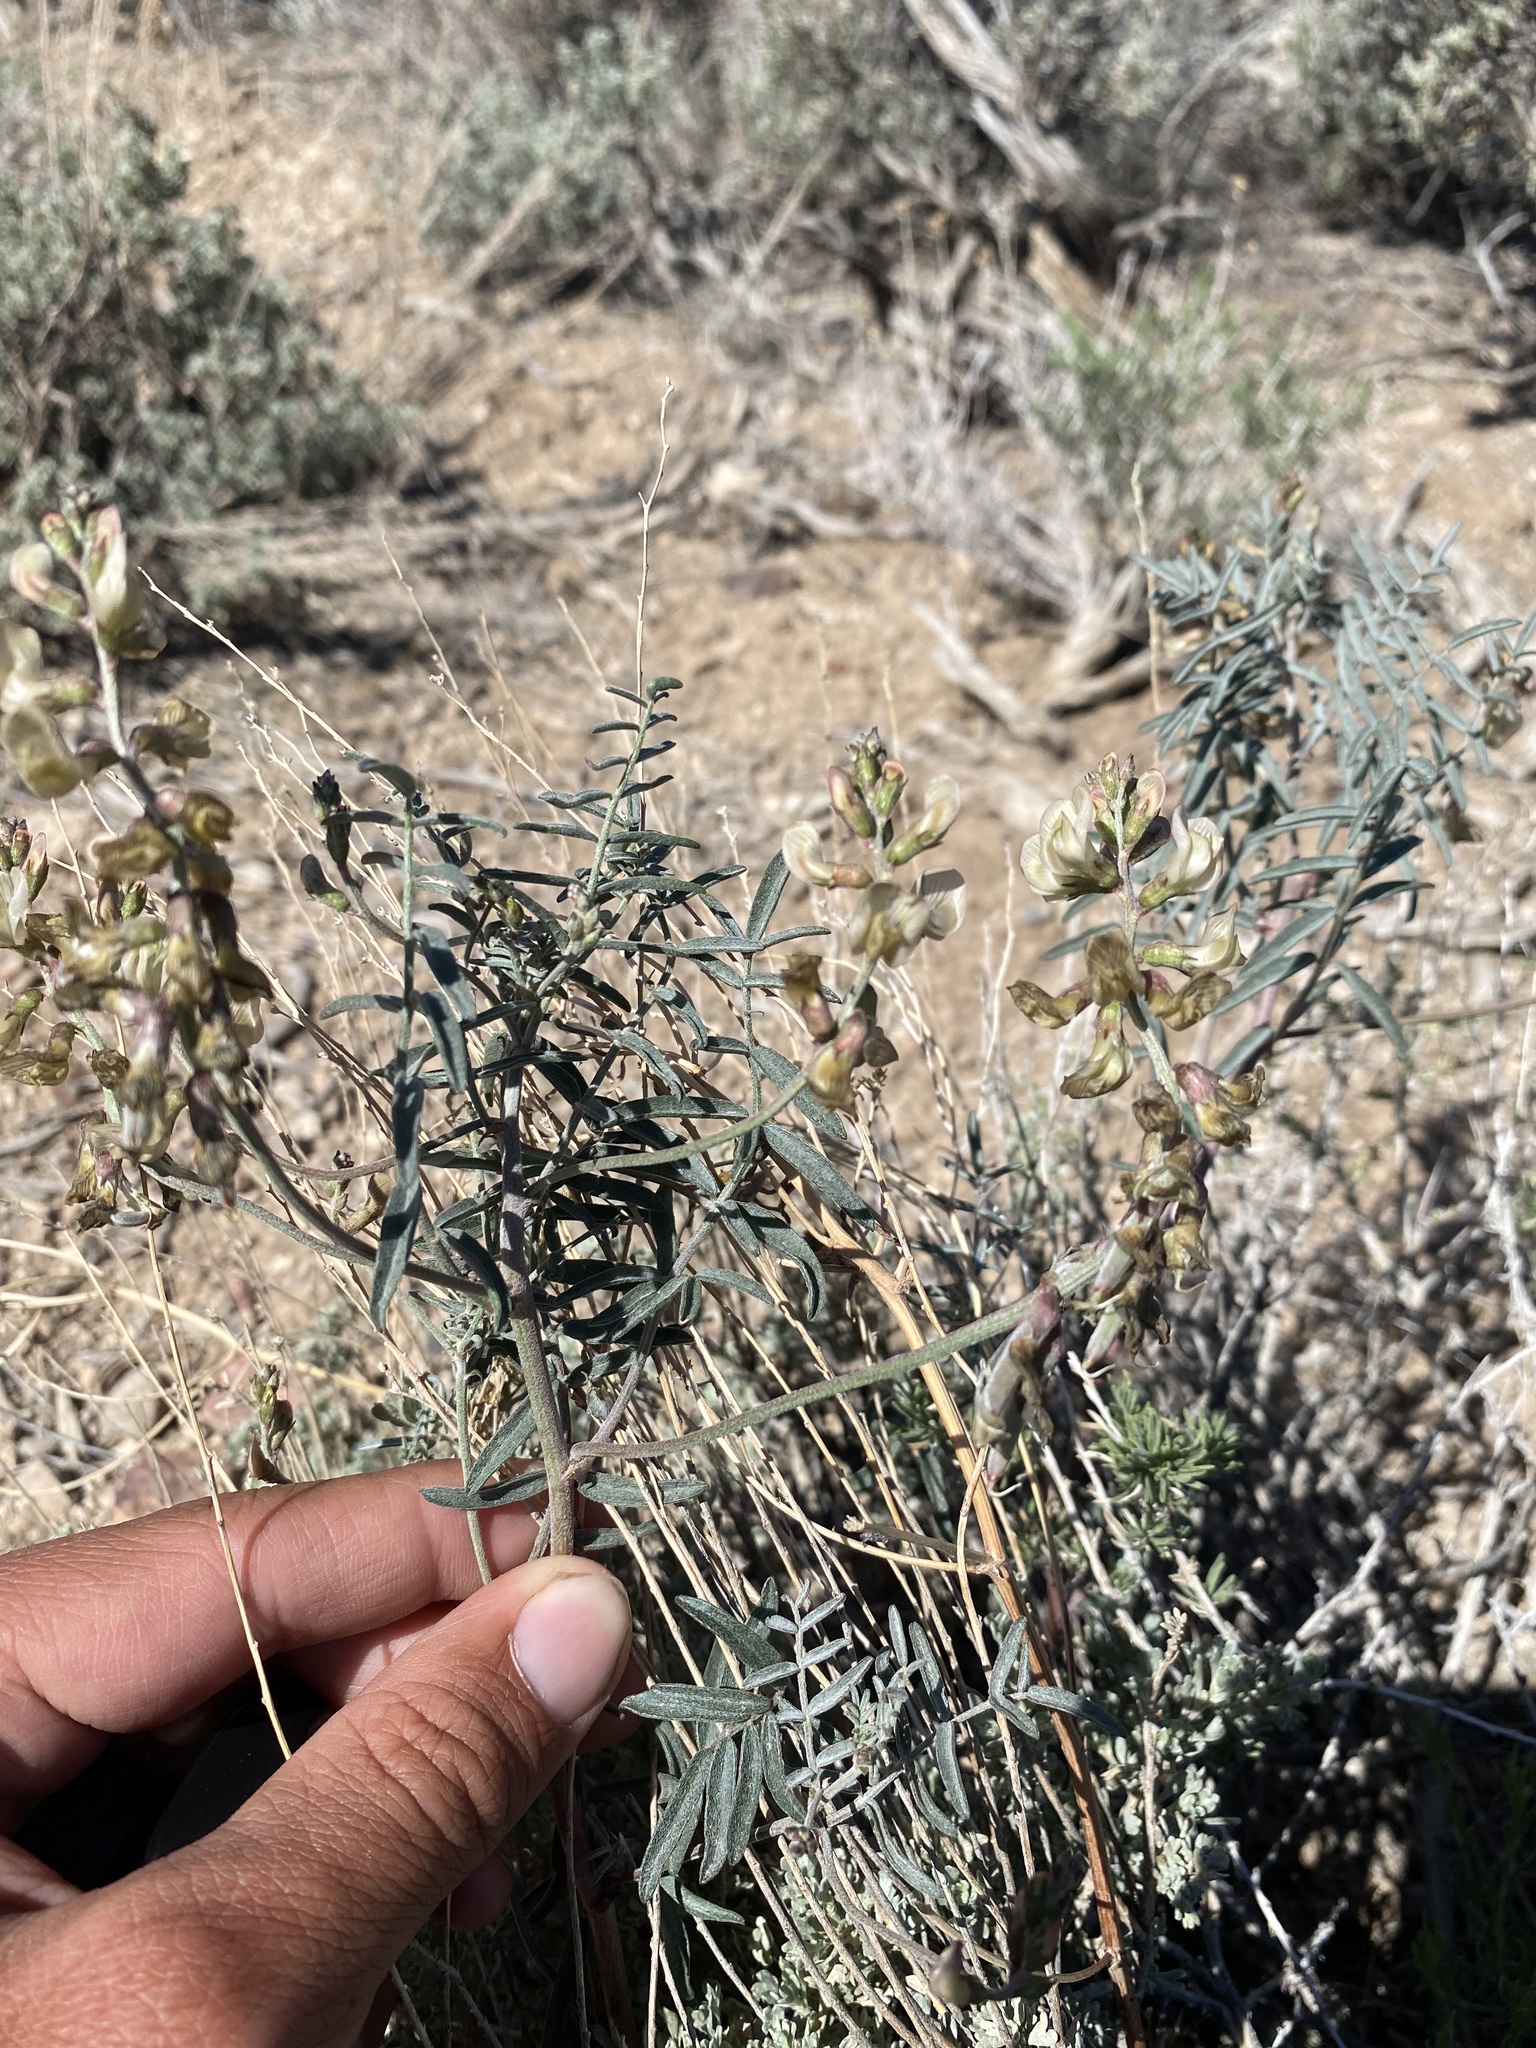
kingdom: Plantae
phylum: Tracheophyta
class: Magnoliopsida
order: Fabales
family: Fabaceae
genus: Astragalus
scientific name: Astragalus pinonis
